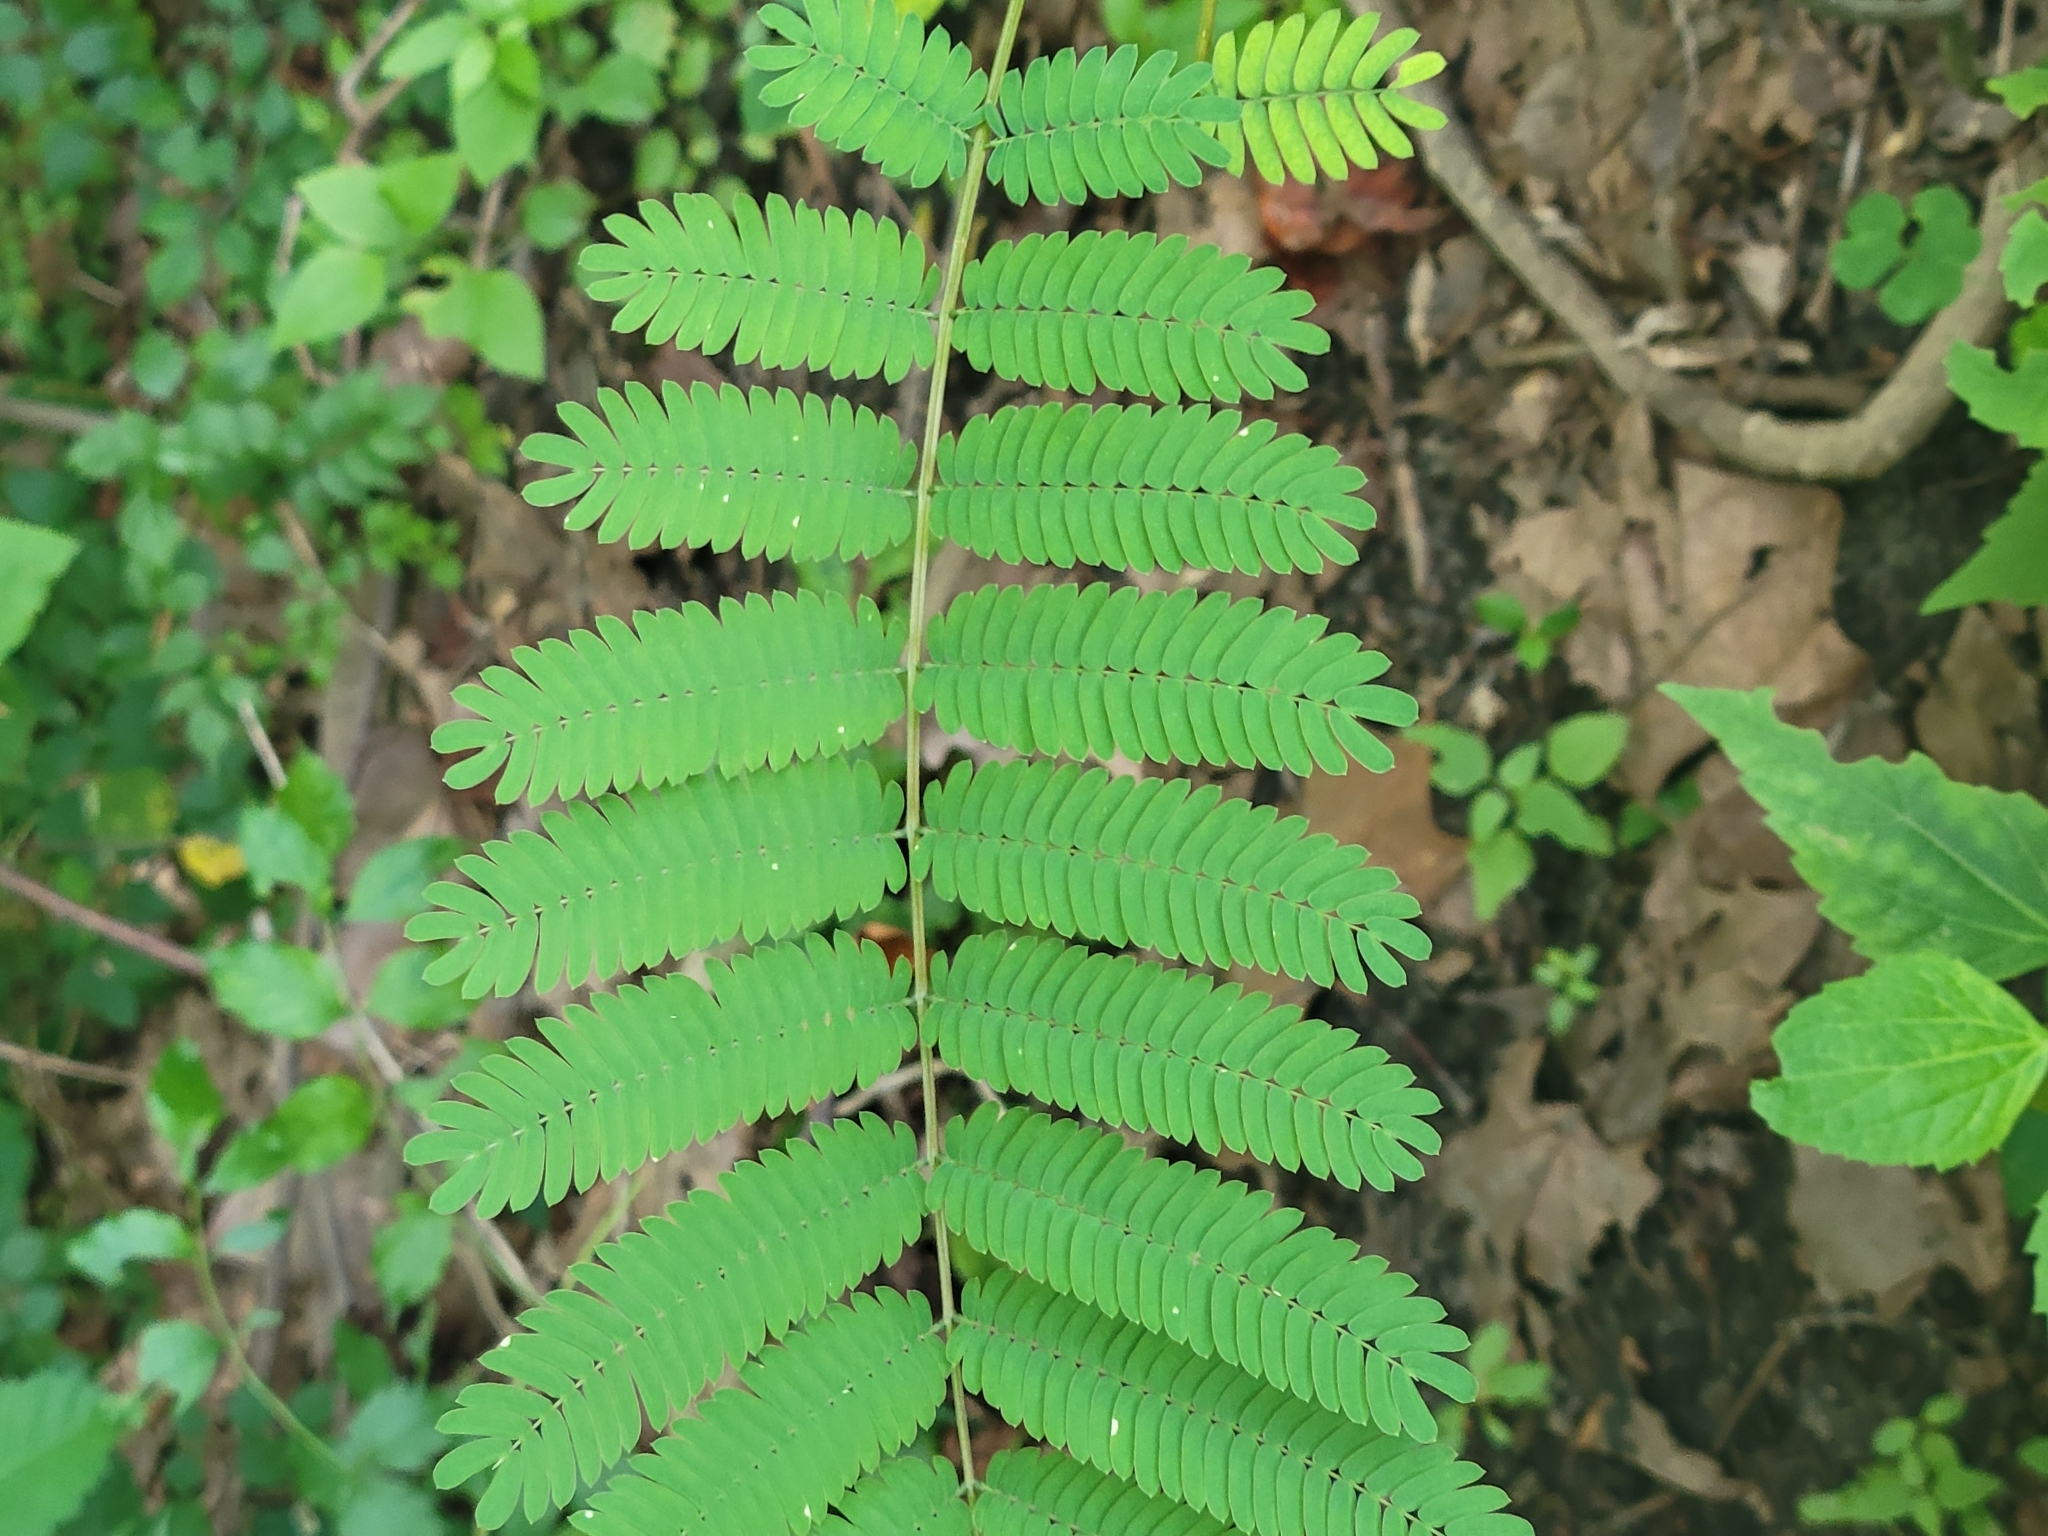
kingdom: Plantae
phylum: Tracheophyta
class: Magnoliopsida
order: Fabales
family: Fabaceae
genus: Albizia
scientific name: Albizia julibrissin
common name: Silktree
